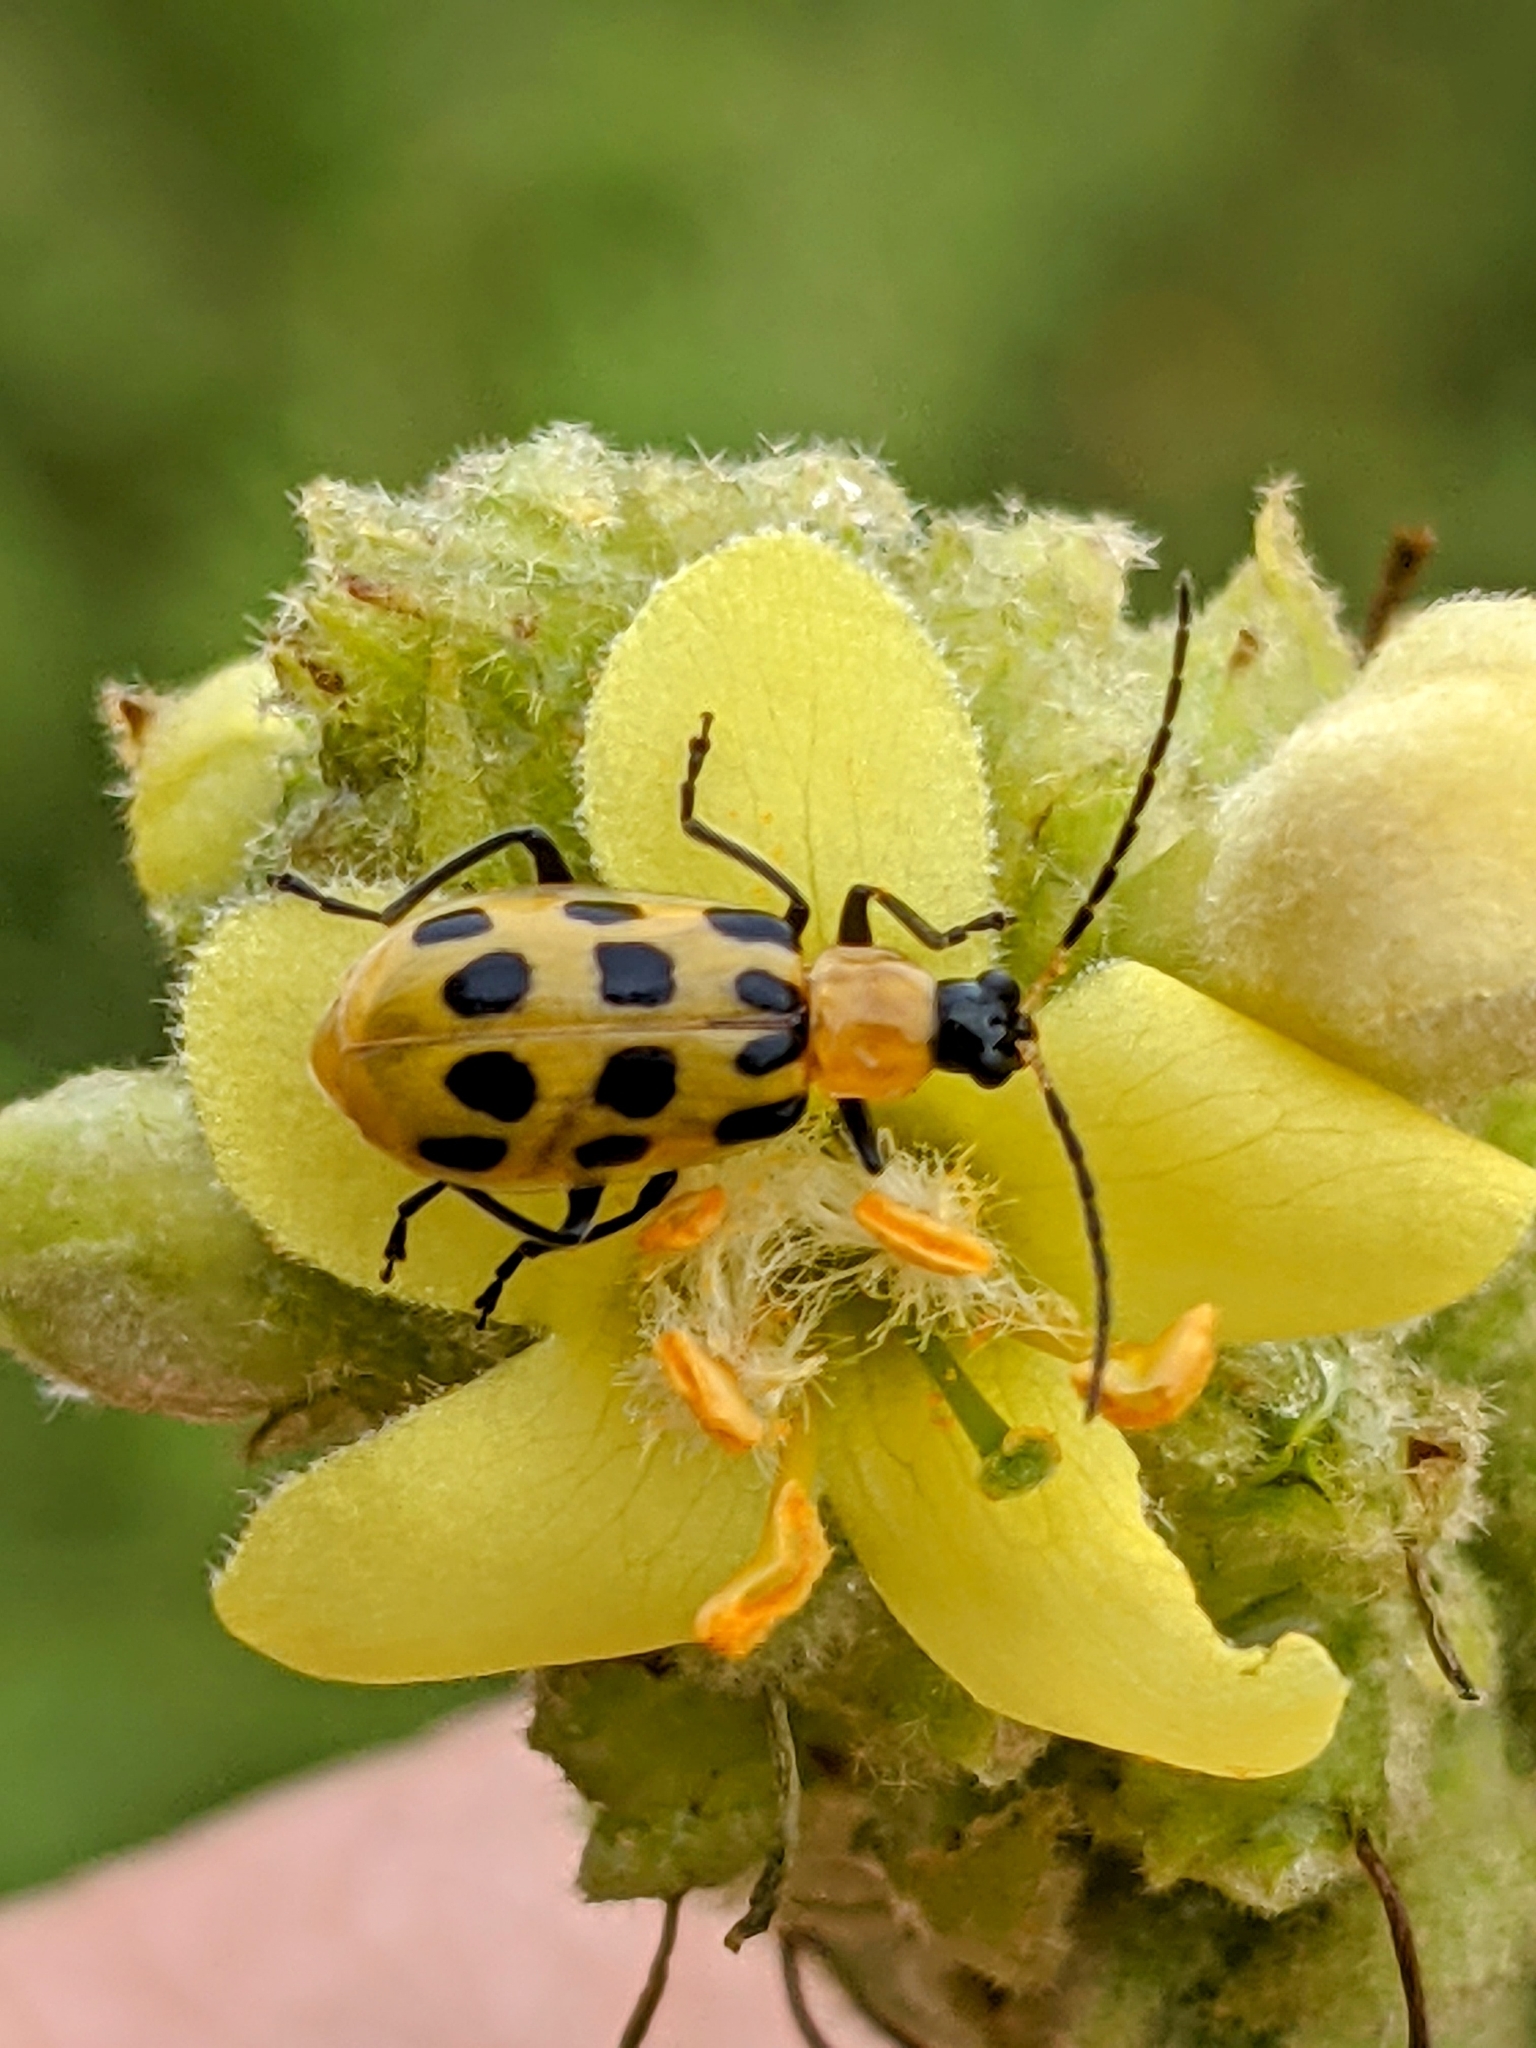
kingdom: Animalia
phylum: Arthropoda
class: Insecta
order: Coleoptera
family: Chrysomelidae
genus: Diabrotica
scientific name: Diabrotica undecimpunctata
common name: Spotted cucumber beetle
